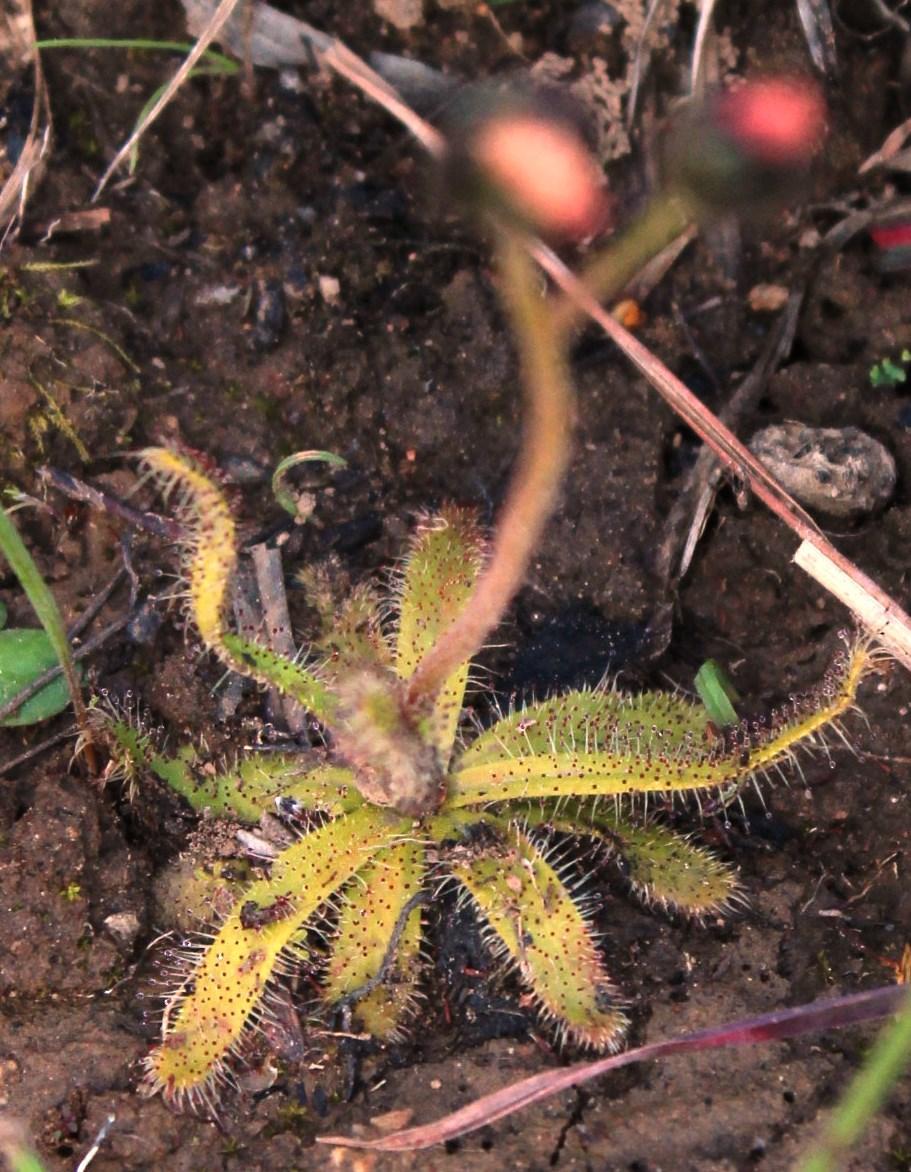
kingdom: Plantae
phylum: Tracheophyta
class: Magnoliopsida
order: Caryophyllales
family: Droseraceae
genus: Drosera
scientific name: Drosera cistiflora
